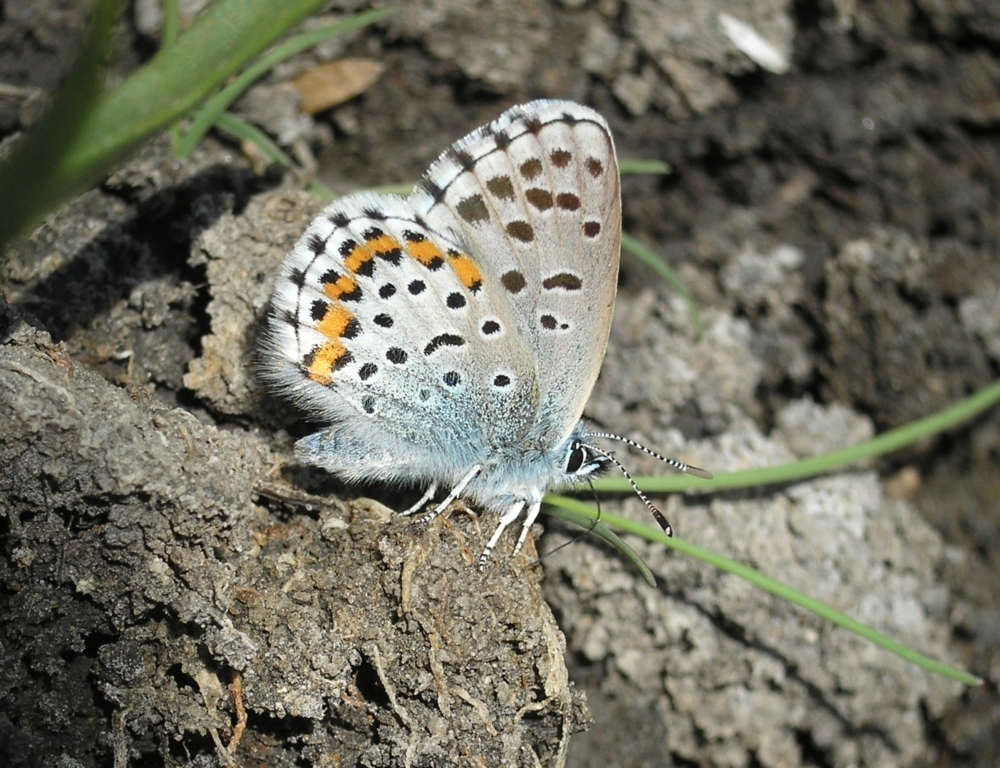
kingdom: Animalia
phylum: Arthropoda
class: Insecta
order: Lepidoptera
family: Lycaenidae
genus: Pseudophilotes
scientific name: Pseudophilotes bavius
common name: Bavius blue
